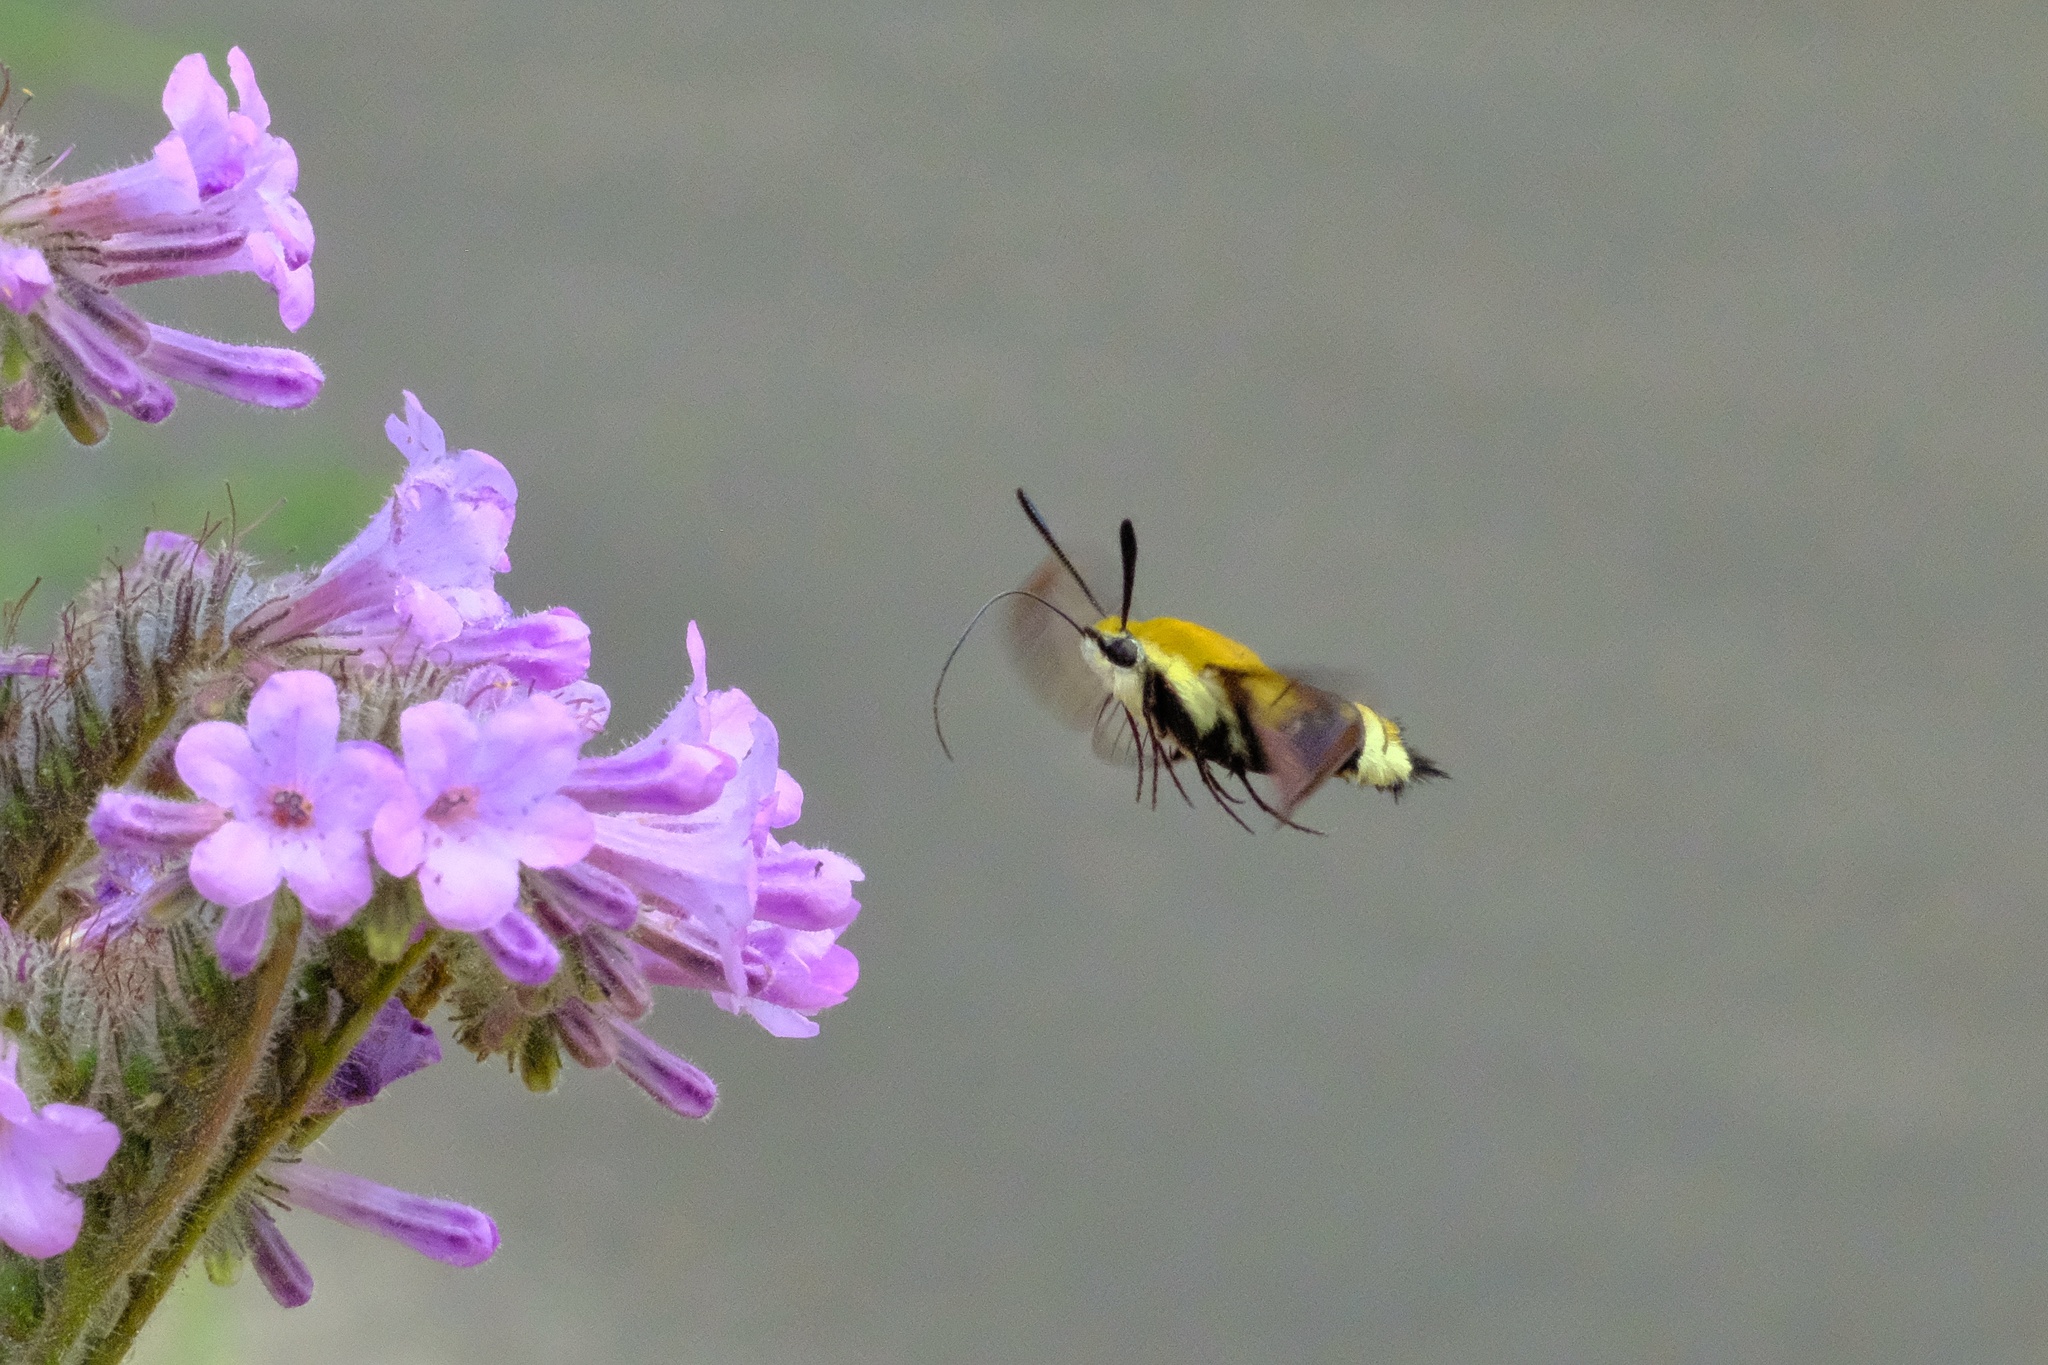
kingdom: Animalia
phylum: Arthropoda
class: Insecta
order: Lepidoptera
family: Sphingidae
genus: Hemaris
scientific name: Hemaris thetis
